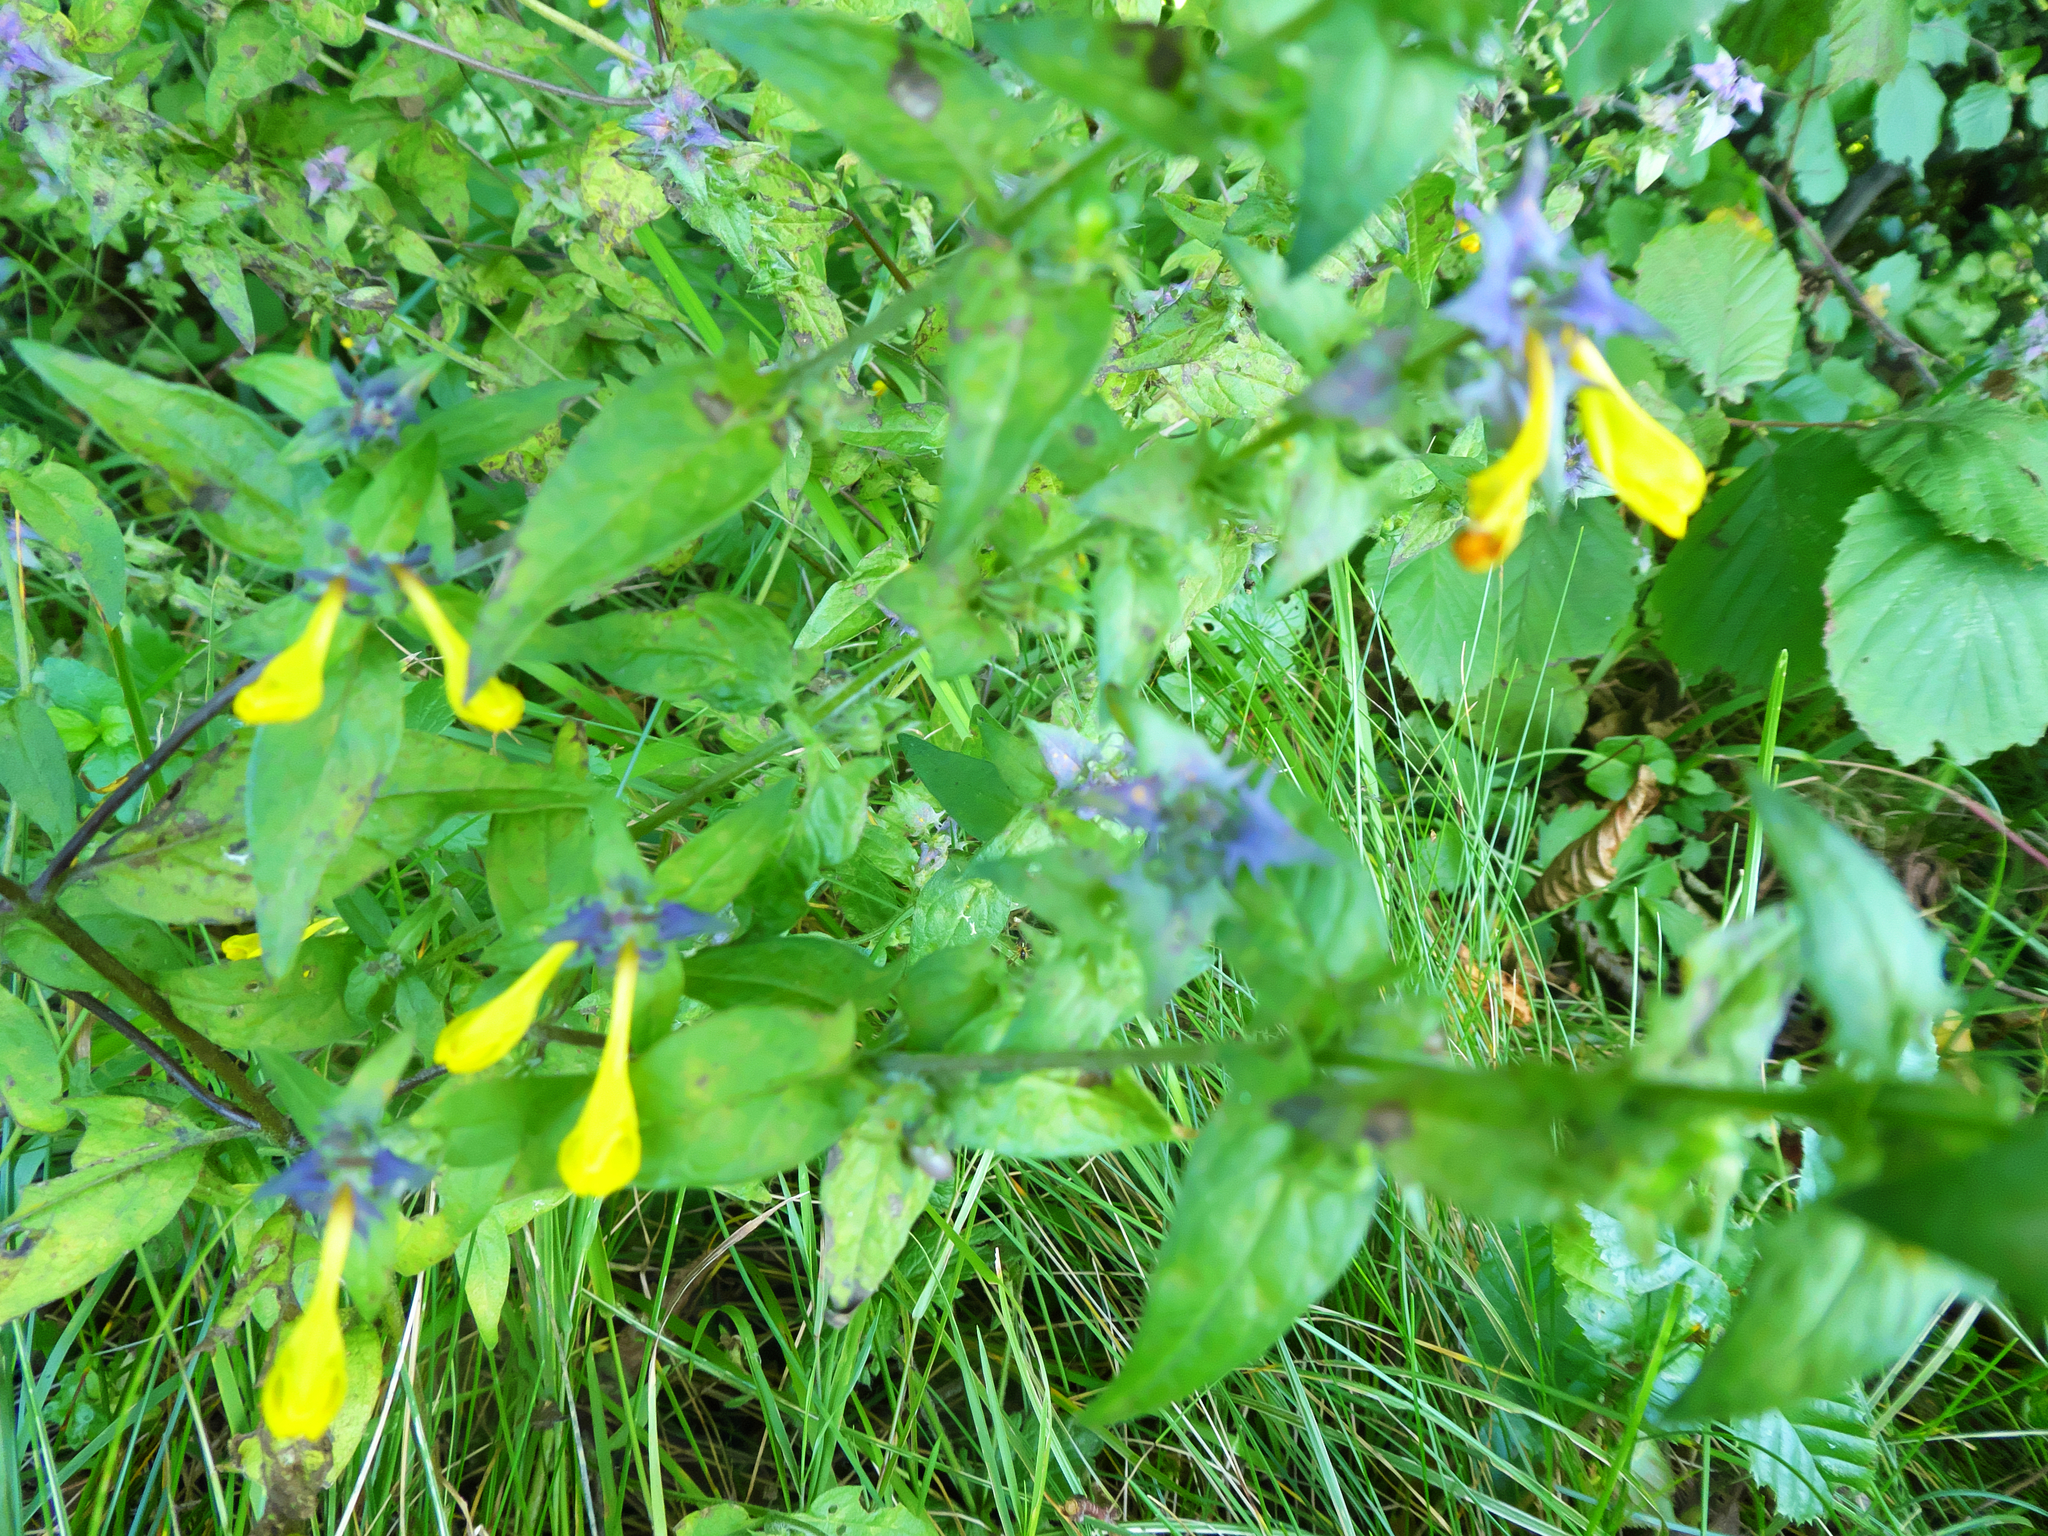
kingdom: Plantae
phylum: Tracheophyta
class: Magnoliopsida
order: Lamiales
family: Orobanchaceae
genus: Melampyrum
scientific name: Melampyrum nemorosum
